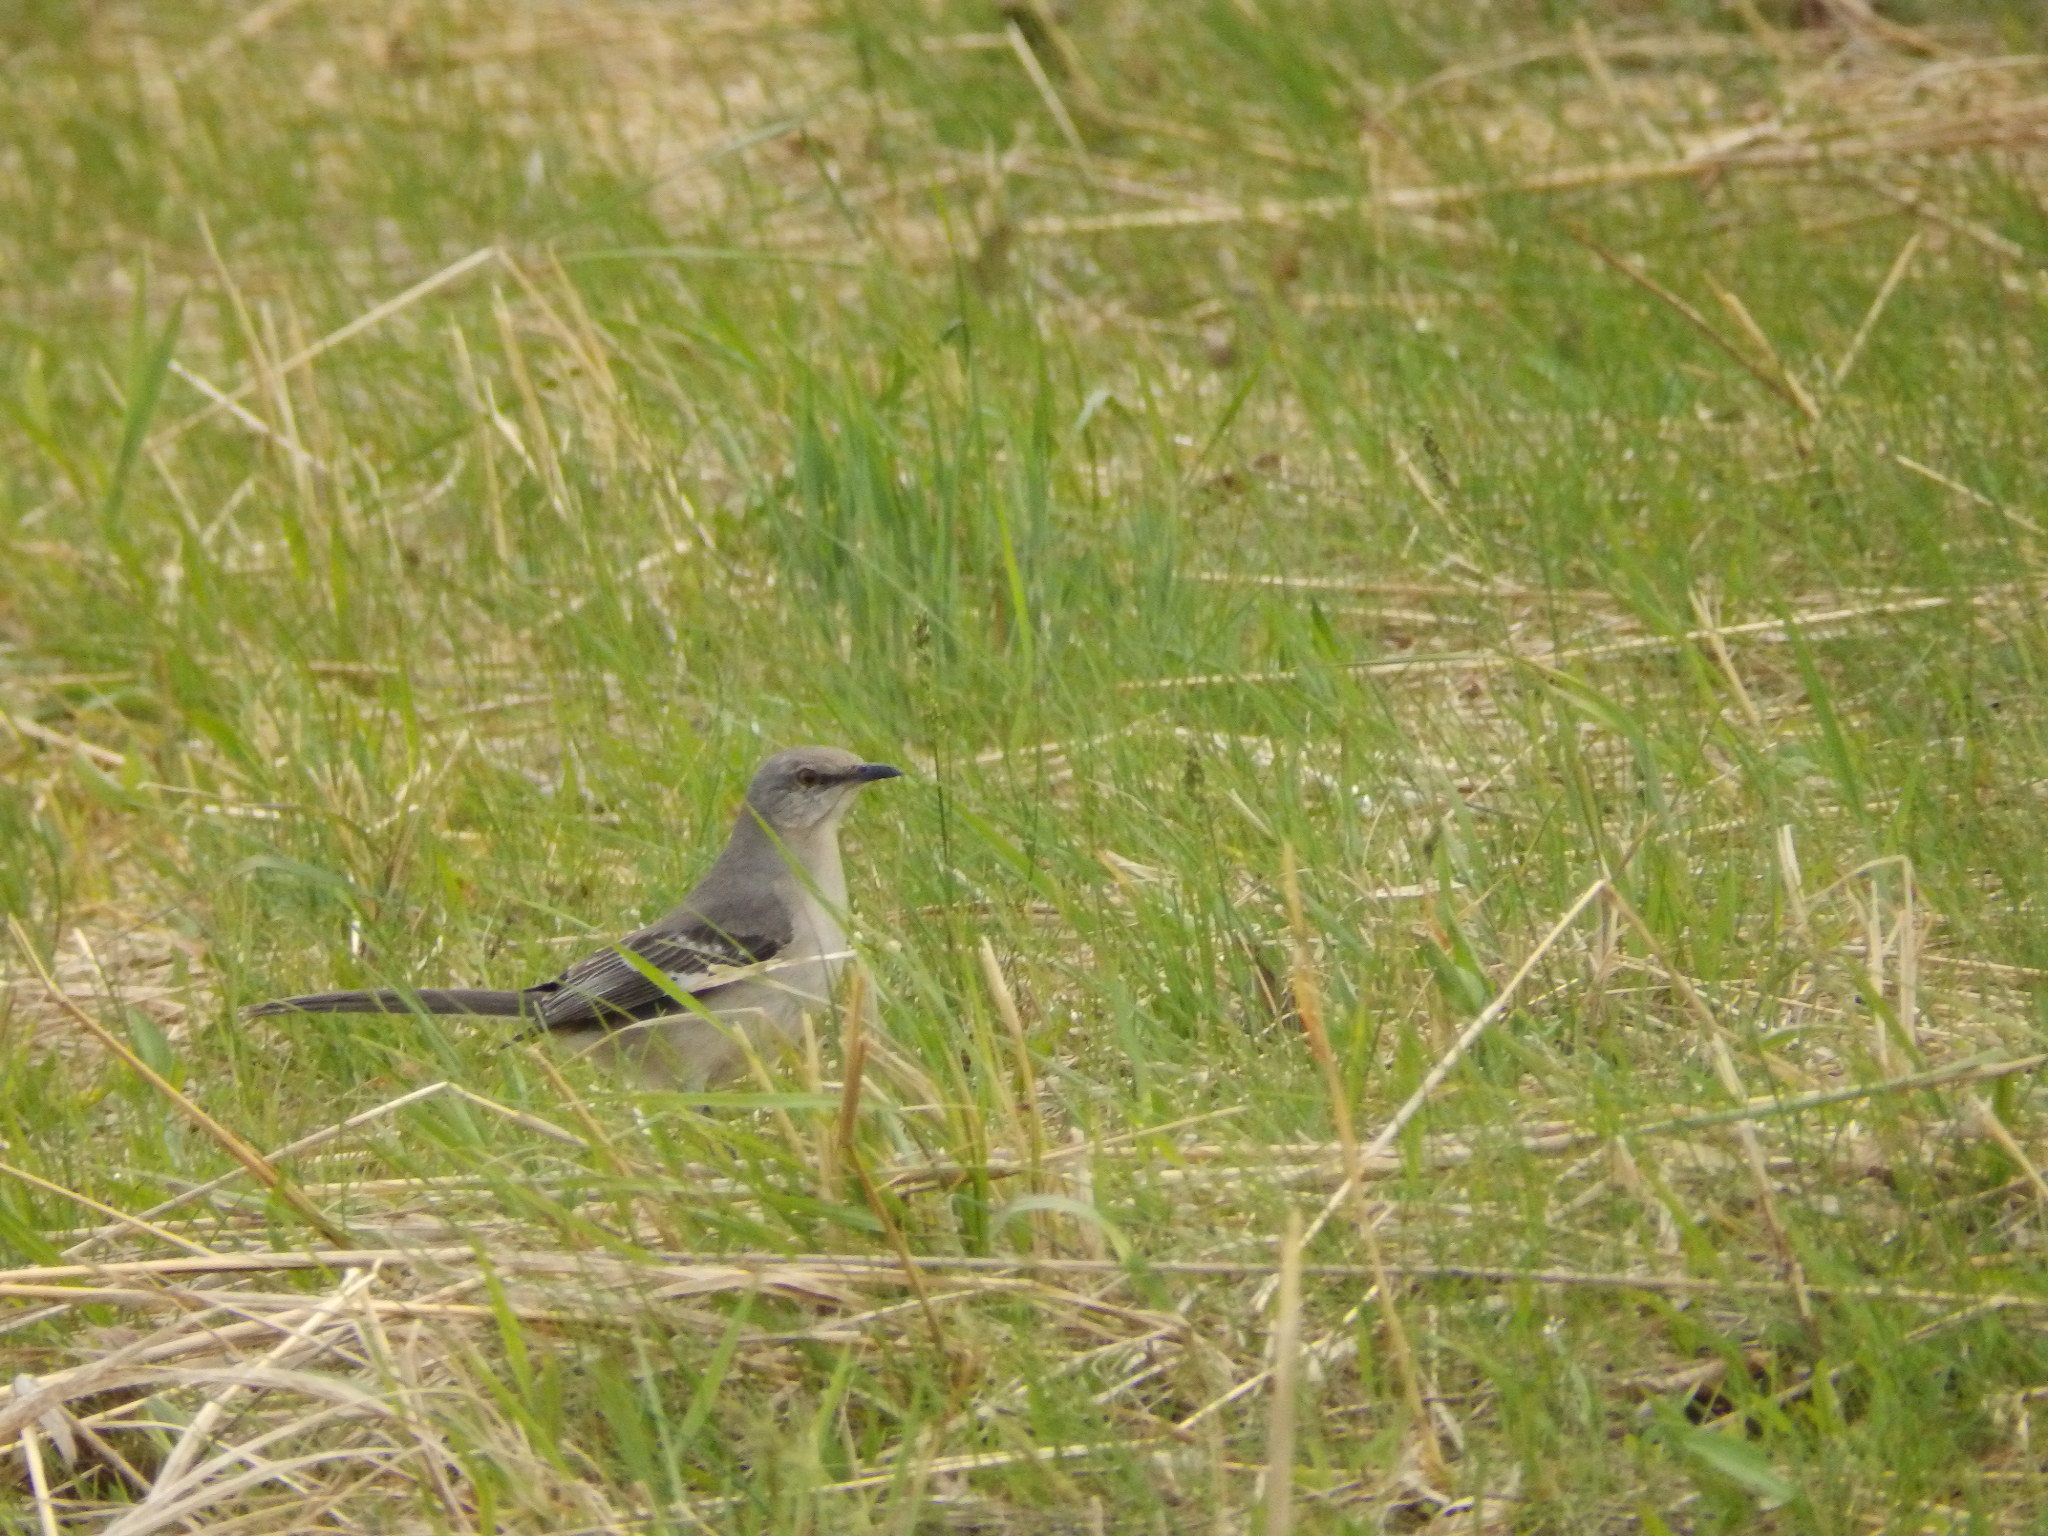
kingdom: Animalia
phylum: Chordata
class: Aves
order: Passeriformes
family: Mimidae
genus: Mimus
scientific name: Mimus polyglottos
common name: Northern mockingbird
